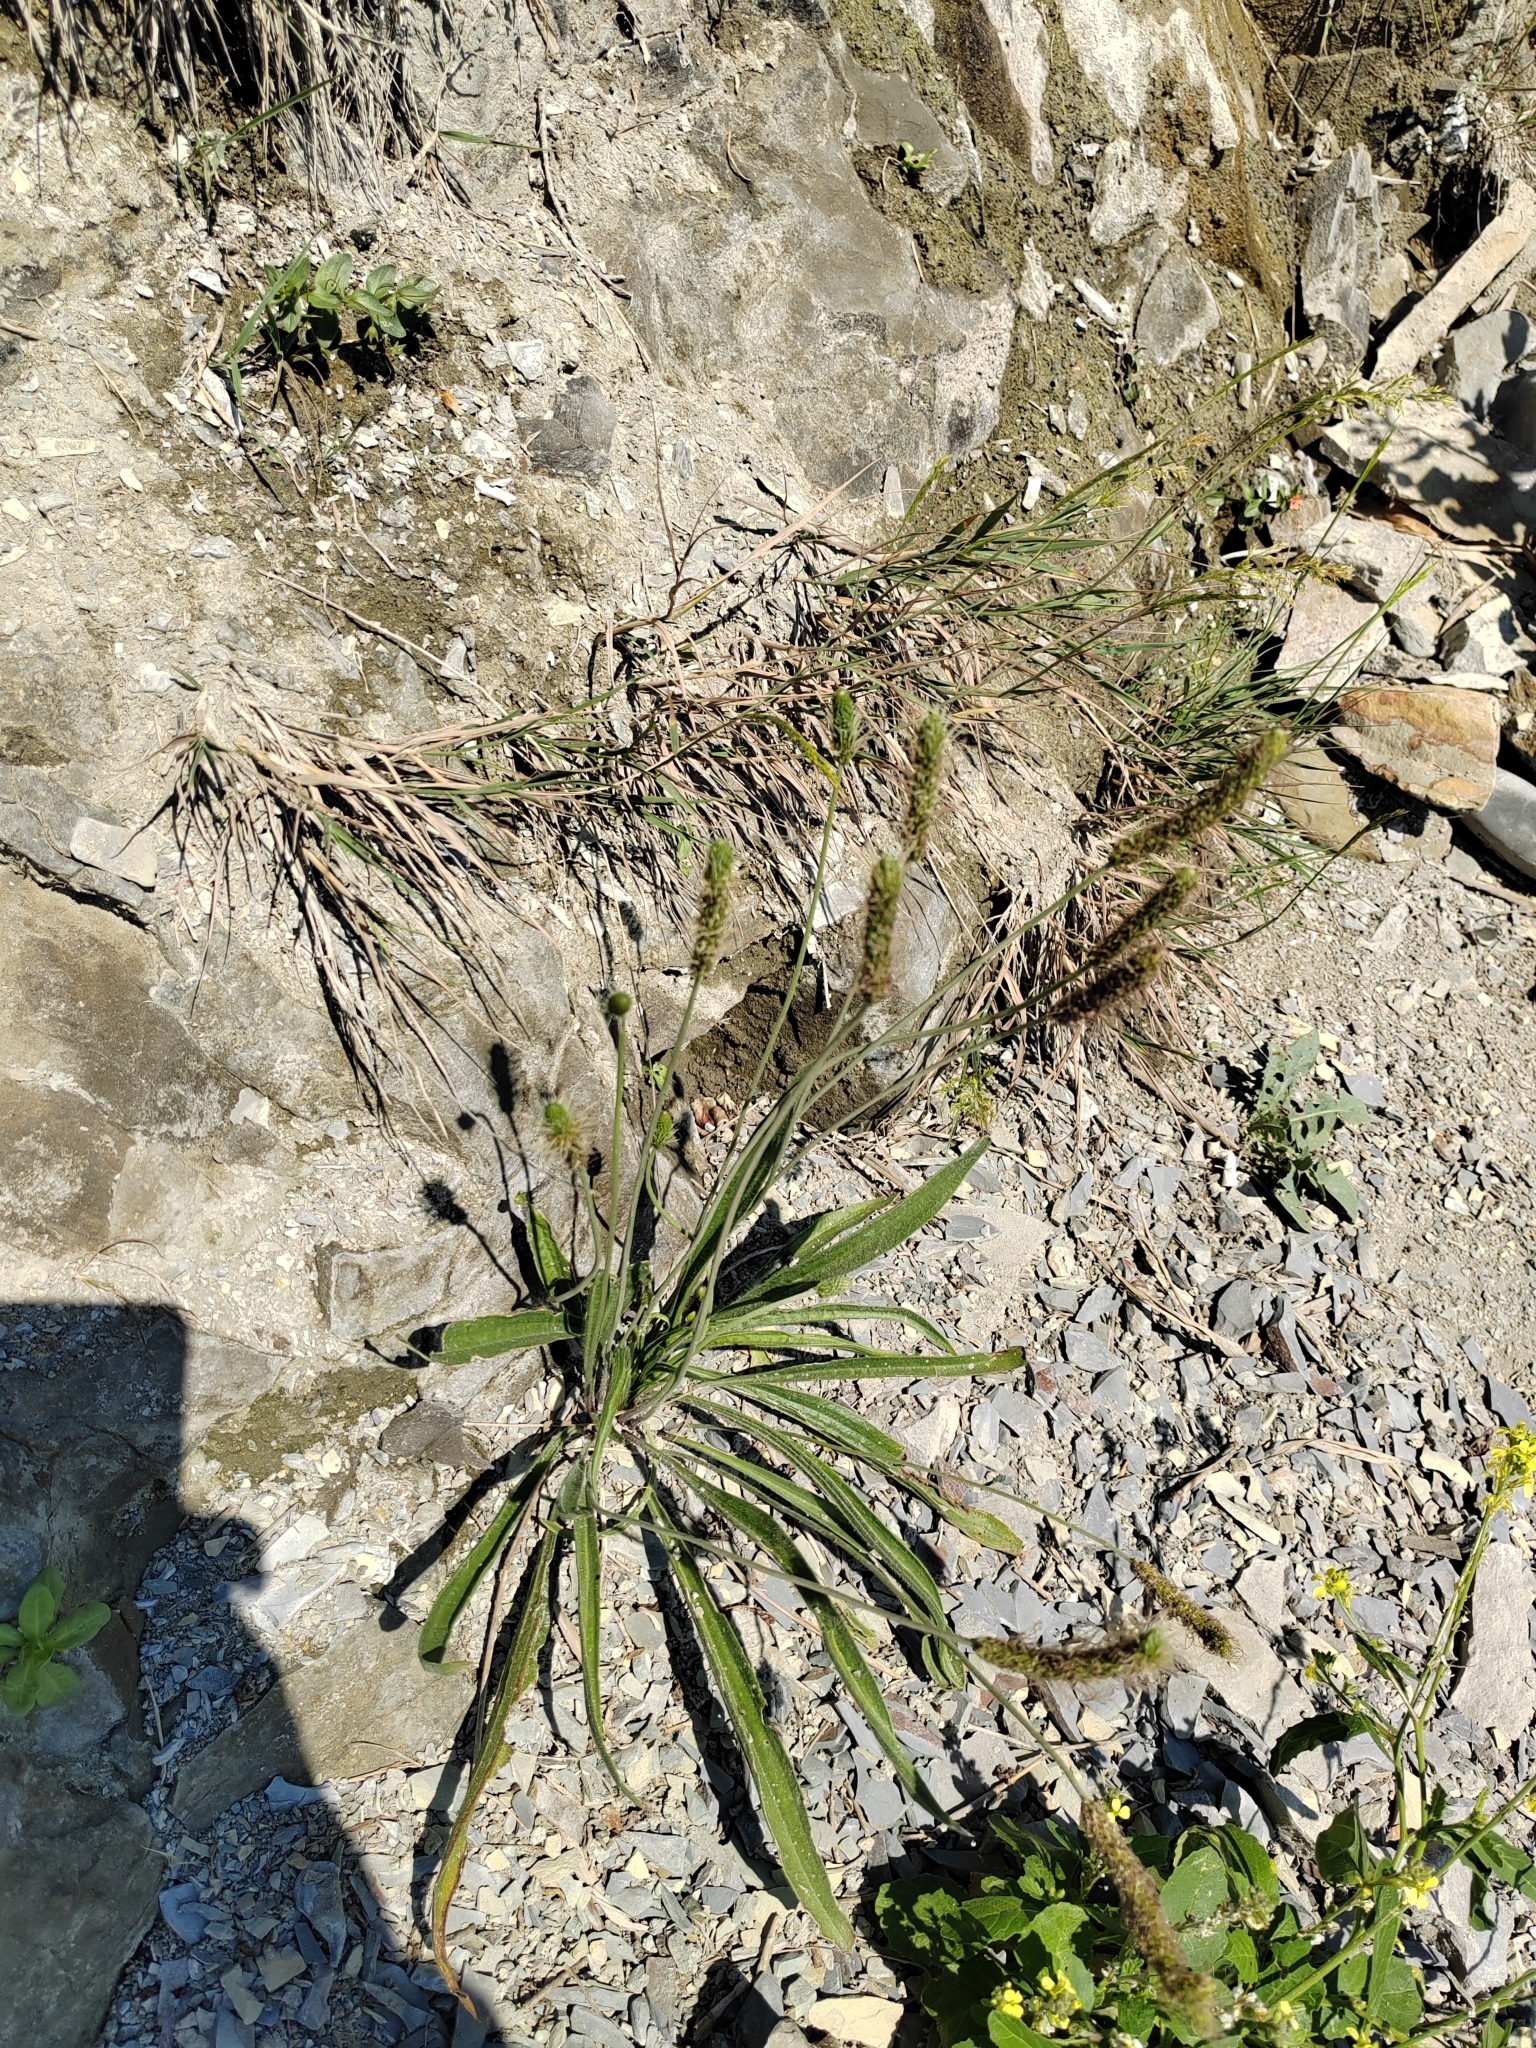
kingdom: Plantae
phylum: Tracheophyta
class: Magnoliopsida
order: Lamiales
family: Plantaginaceae
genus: Plantago
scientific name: Plantago lanceolata
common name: Ribwort plantain
